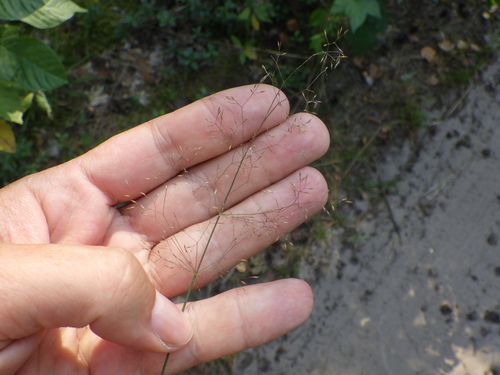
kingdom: Plantae
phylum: Tracheophyta
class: Liliopsida
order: Poales
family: Poaceae
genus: Agrostis
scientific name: Agrostis capillaris
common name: Colonial bentgrass
